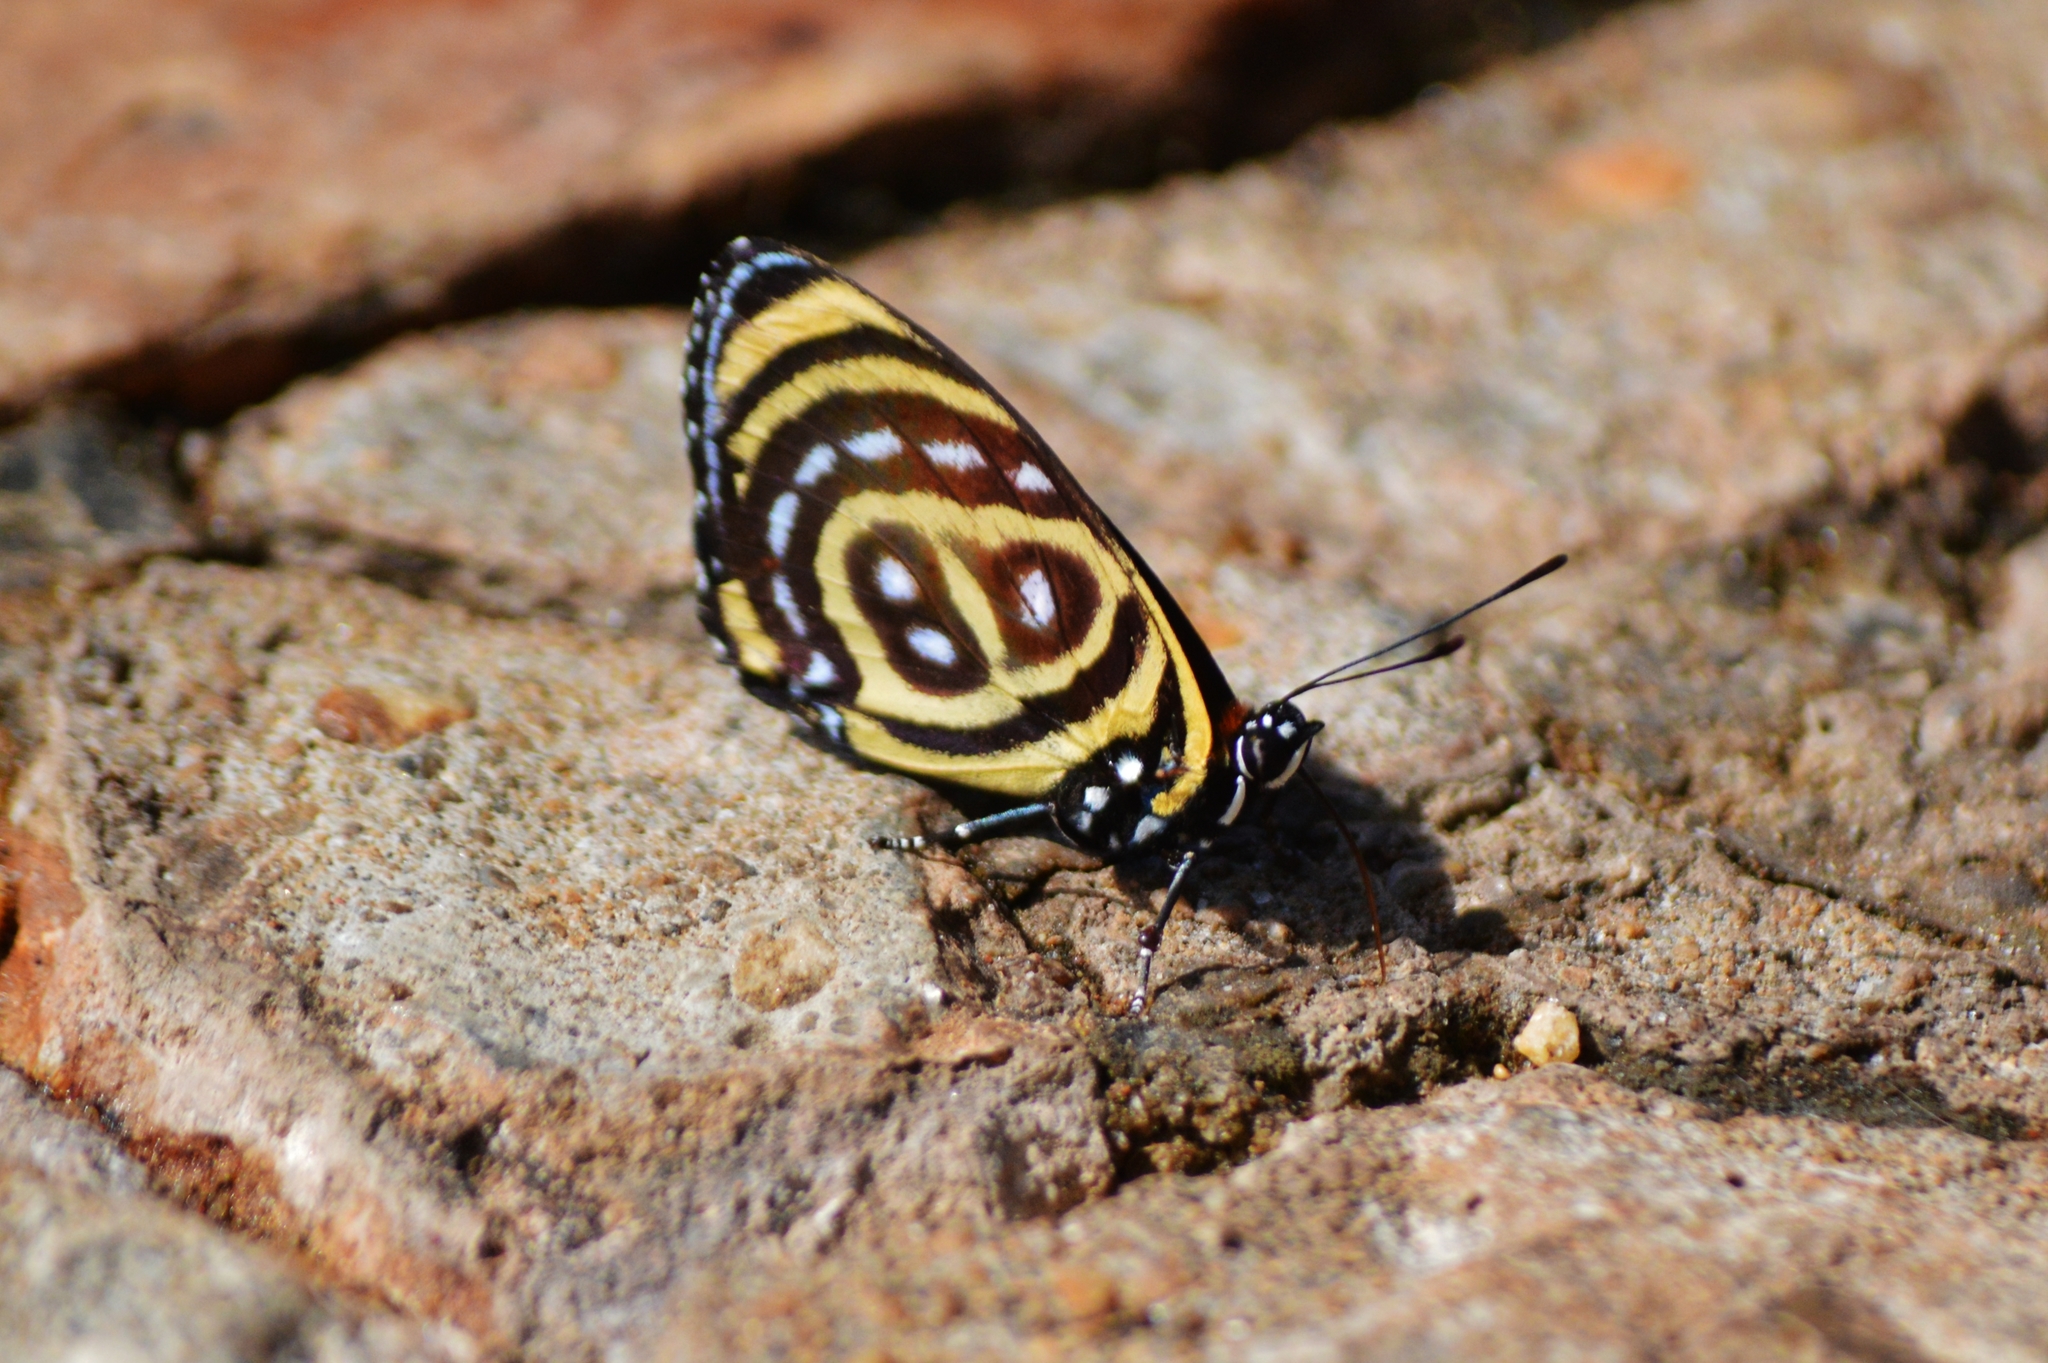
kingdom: Animalia
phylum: Arthropoda
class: Insecta
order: Lepidoptera
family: Nymphalidae
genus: Catagramma
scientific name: Catagramma astarte
